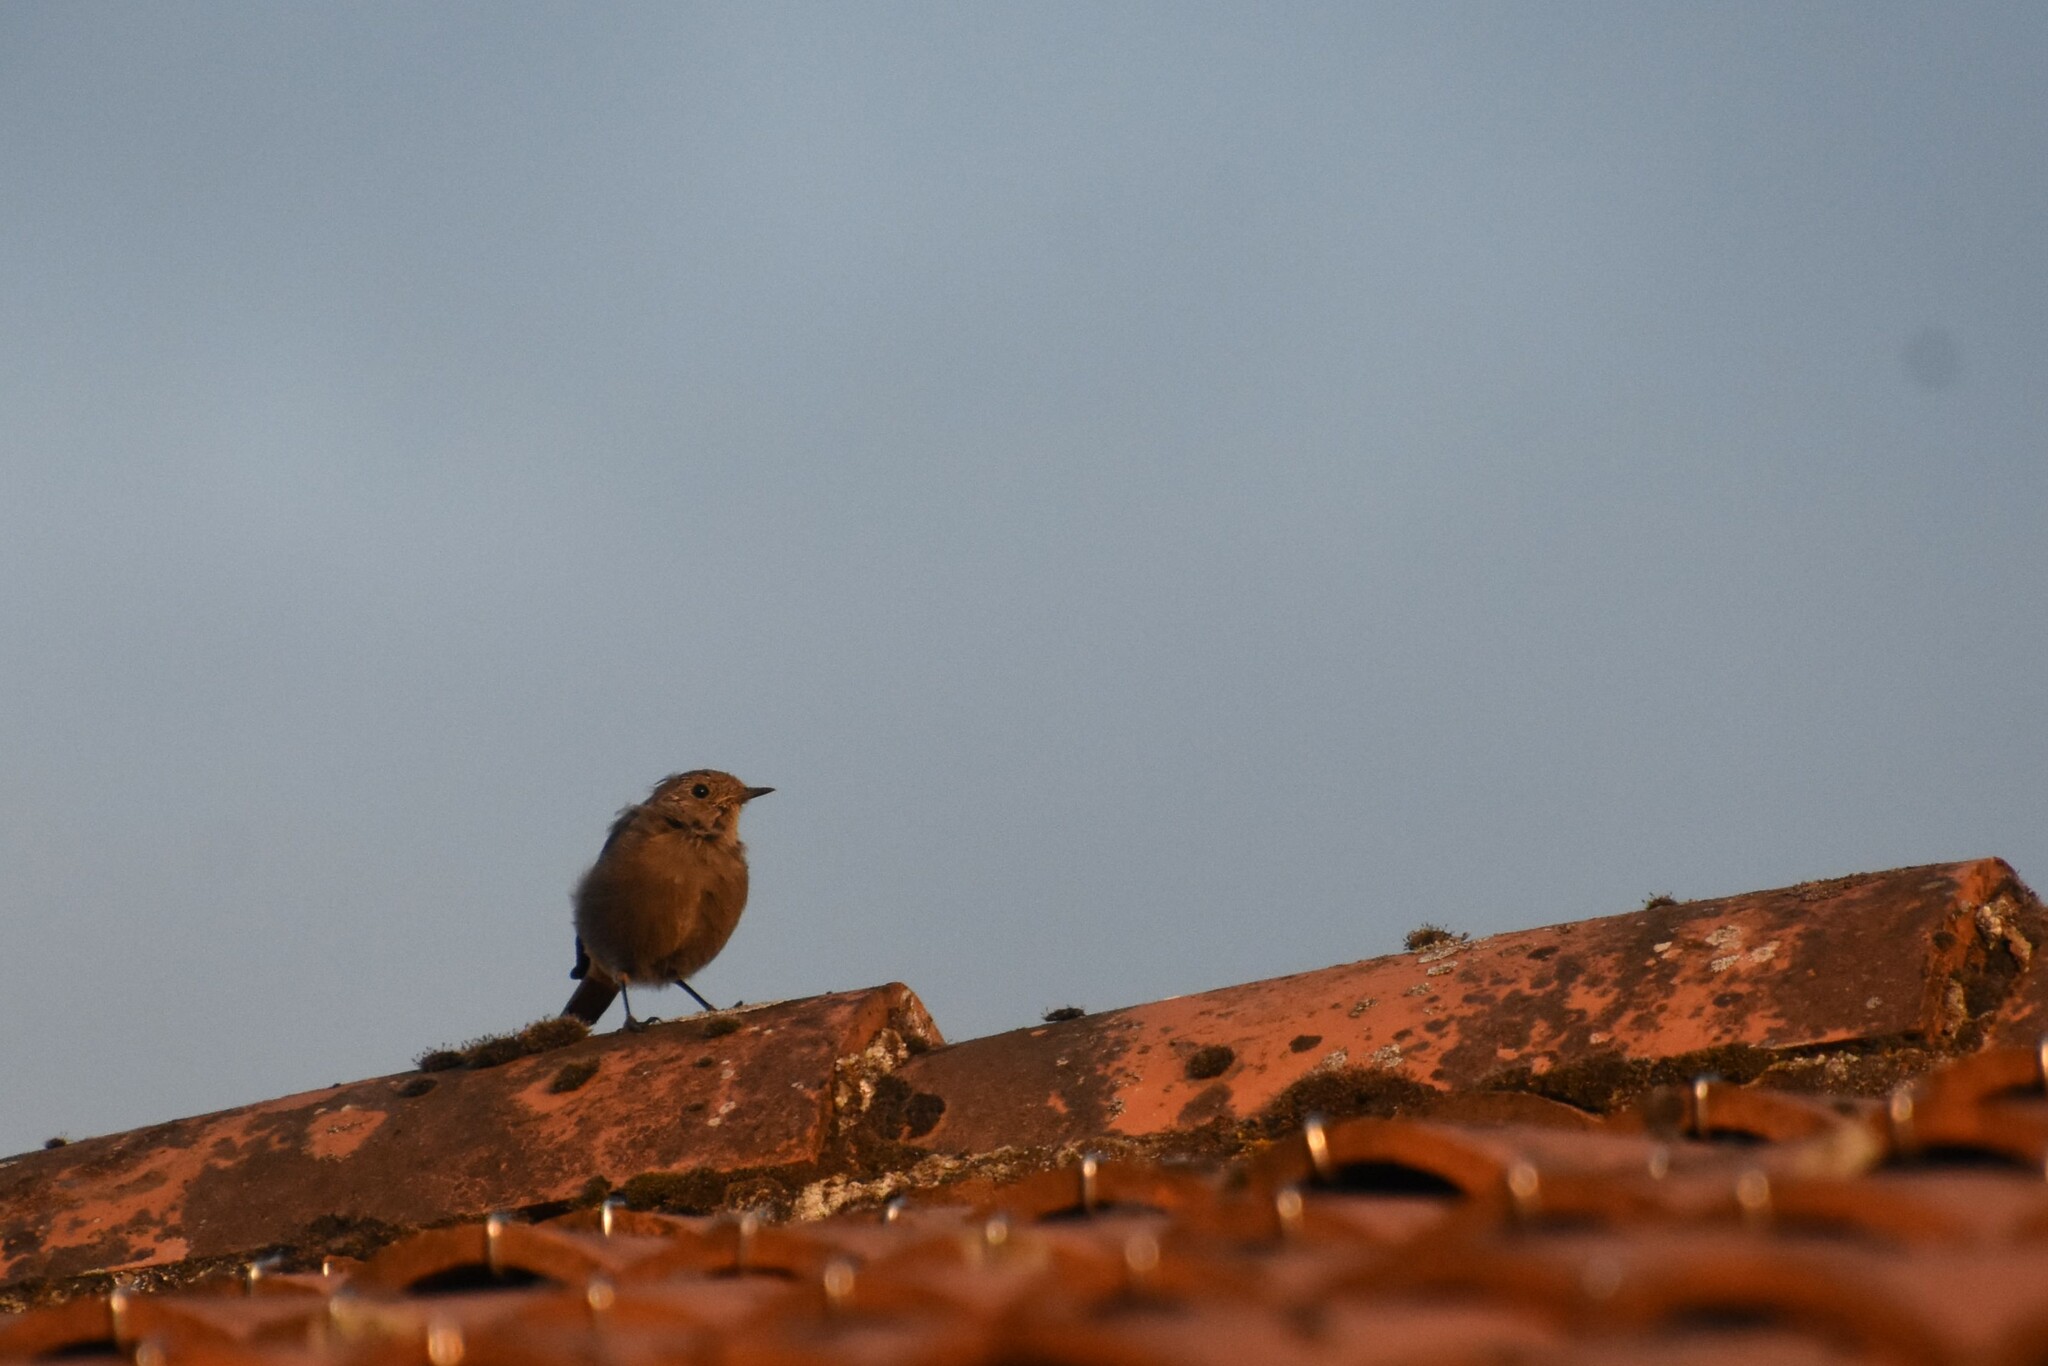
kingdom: Animalia
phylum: Chordata
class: Aves
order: Passeriformes
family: Muscicapidae
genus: Phoenicurus
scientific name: Phoenicurus ochruros
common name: Black redstart
